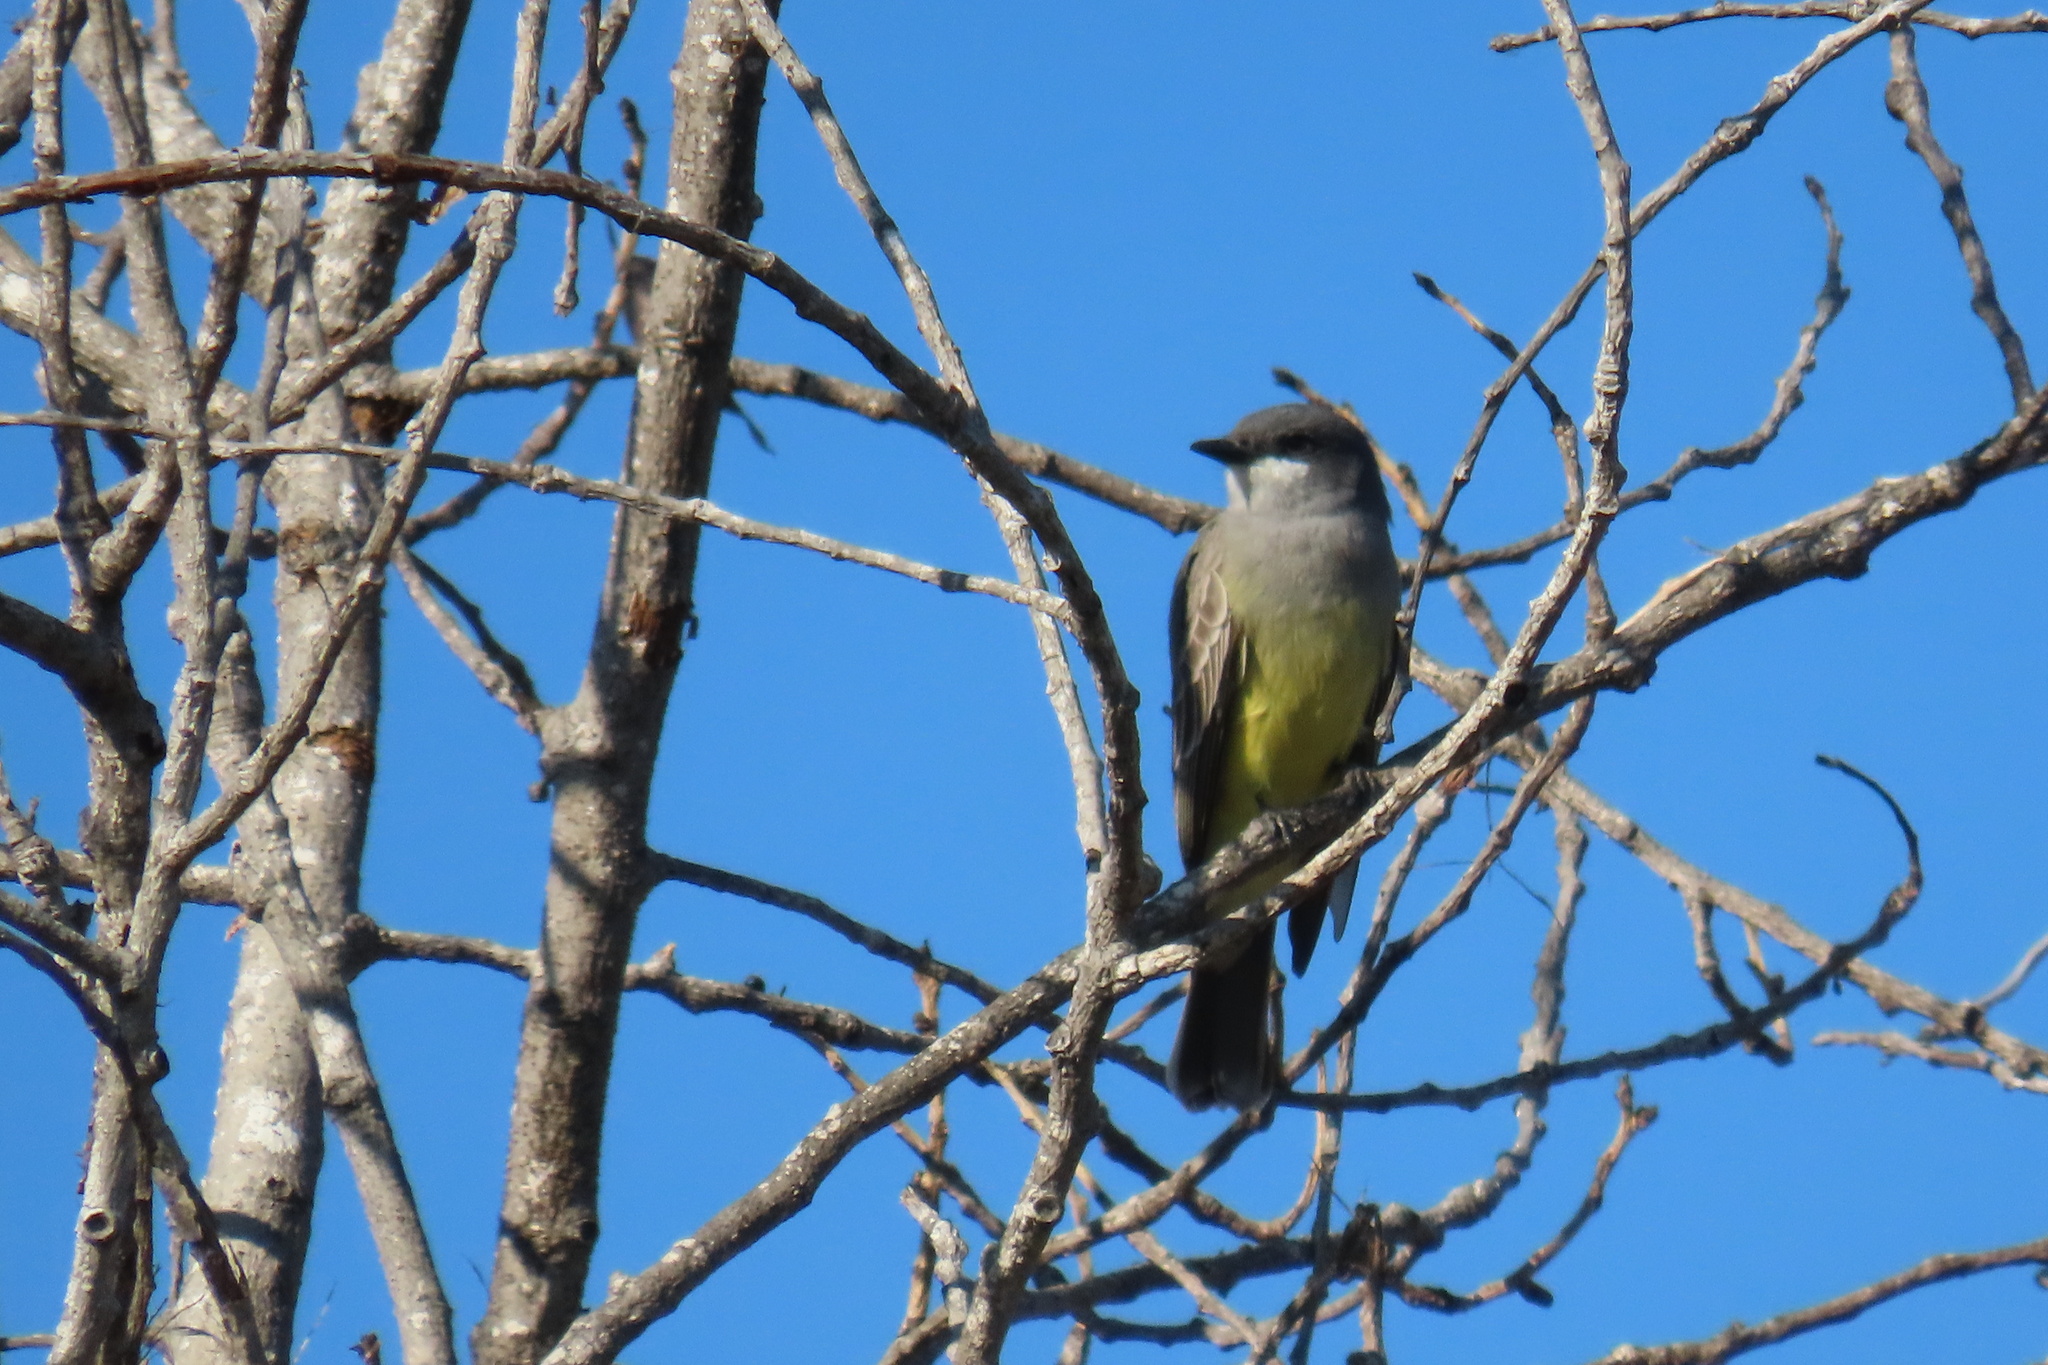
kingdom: Animalia
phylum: Chordata
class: Aves
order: Passeriformes
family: Tyrannidae
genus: Tyrannus
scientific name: Tyrannus vociferans
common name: Cassin's kingbird
